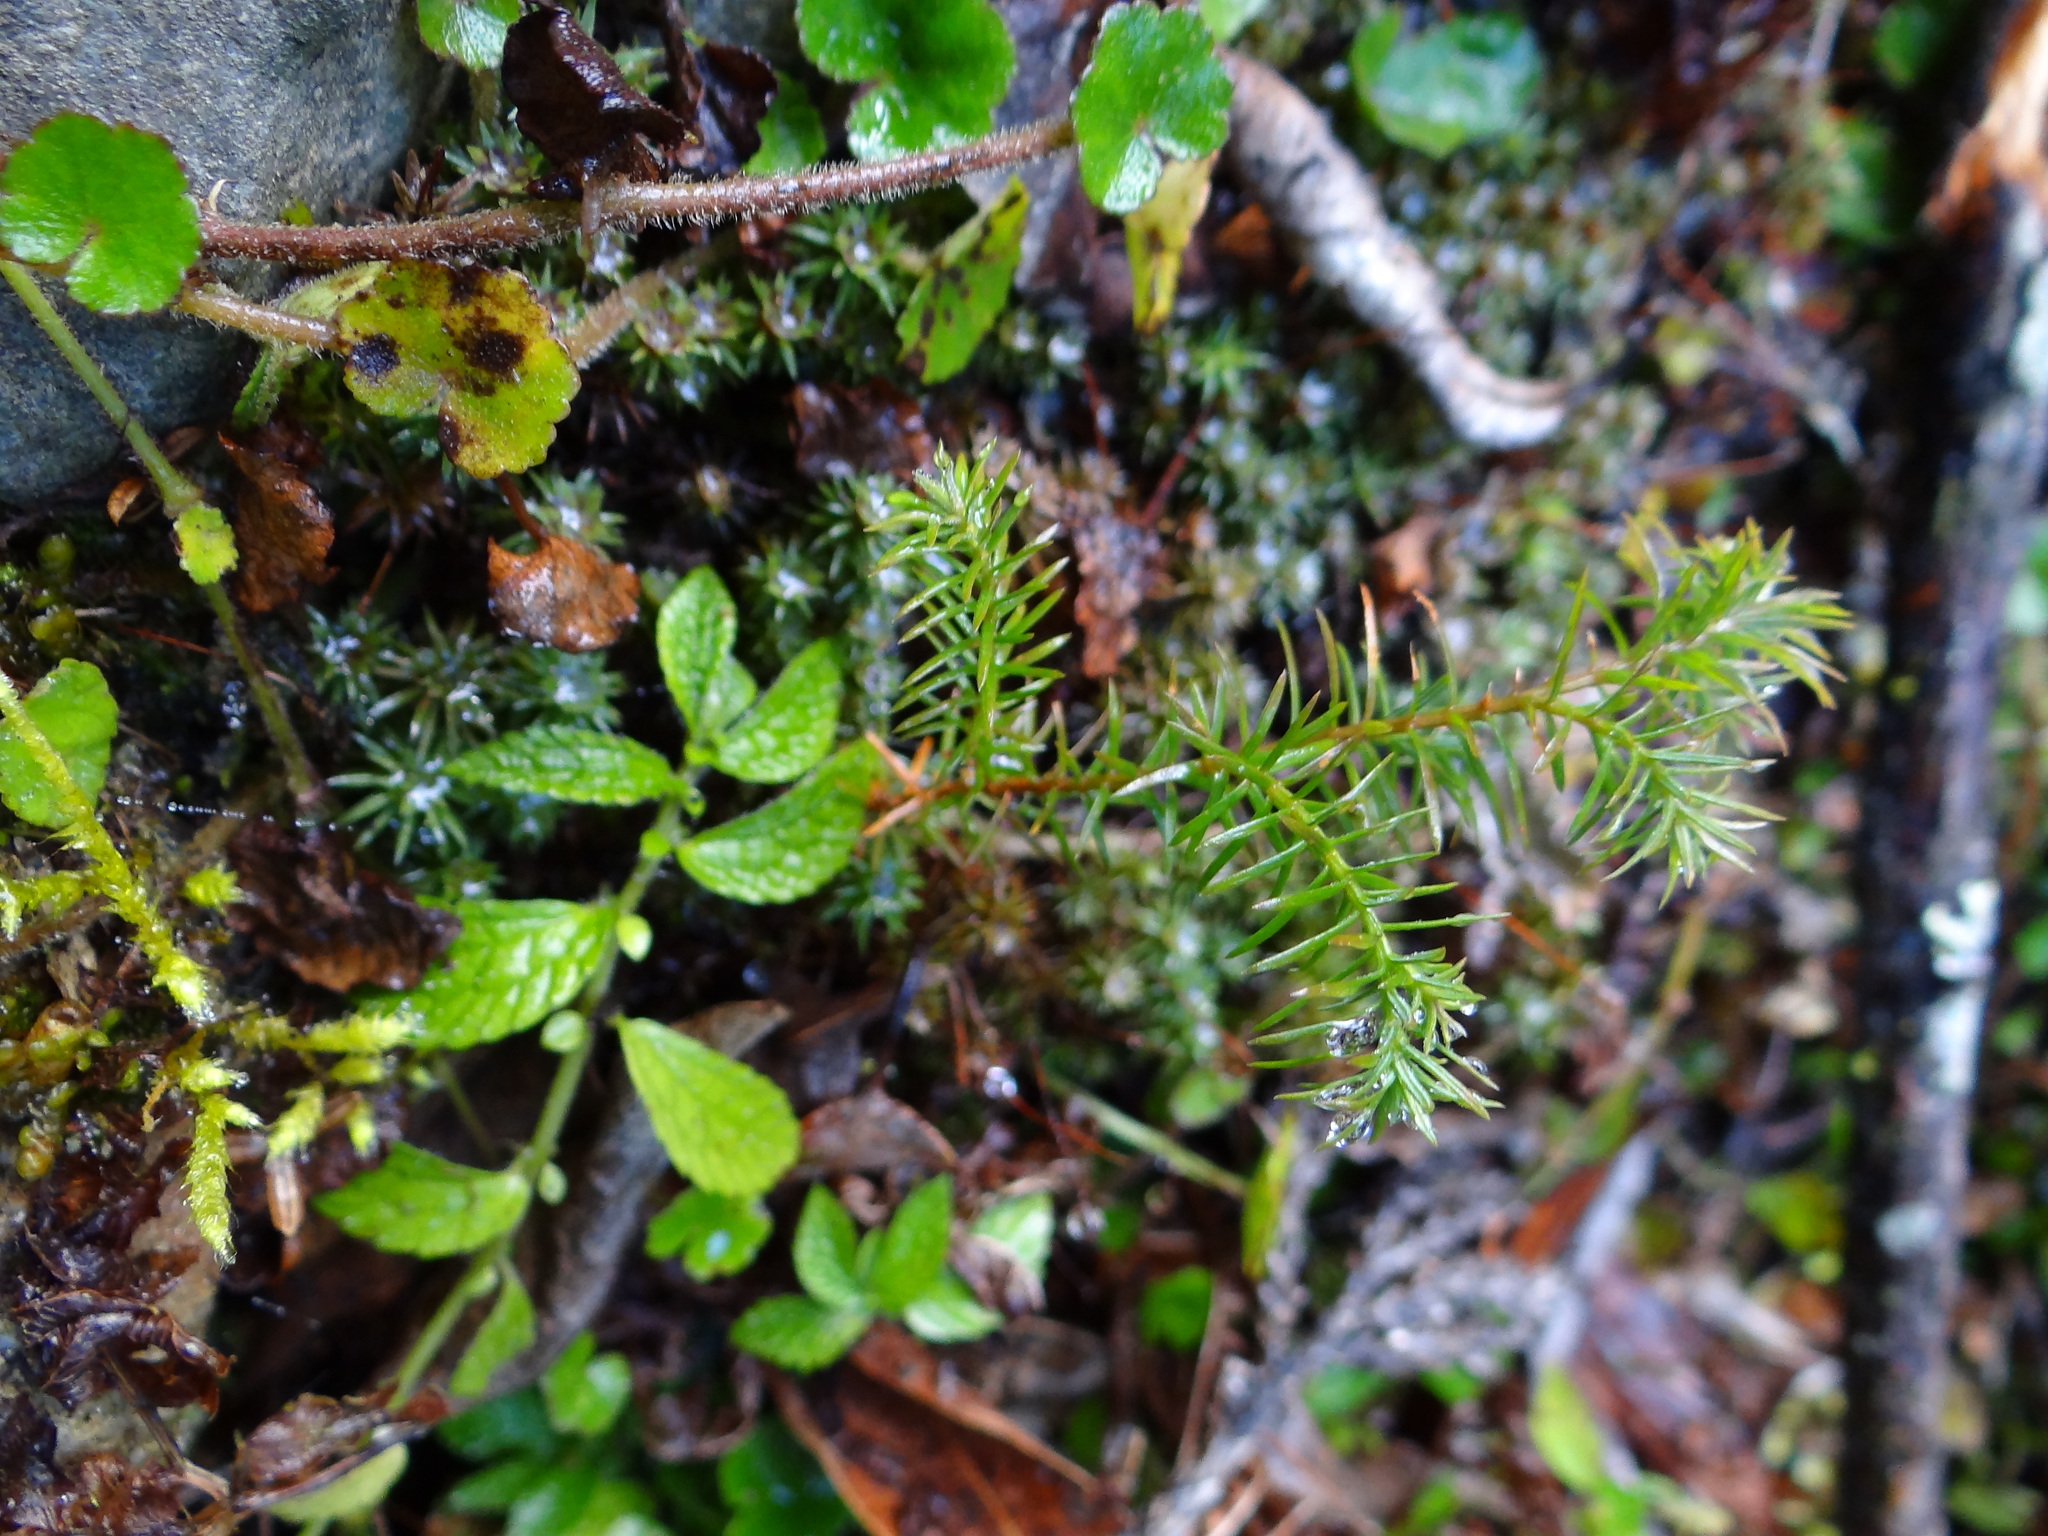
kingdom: Plantae
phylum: Tracheophyta
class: Pinopsida
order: Pinales
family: Cupressaceae
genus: Chamaecyparis
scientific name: Chamaecyparis formosensis
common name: Formosan cypress
